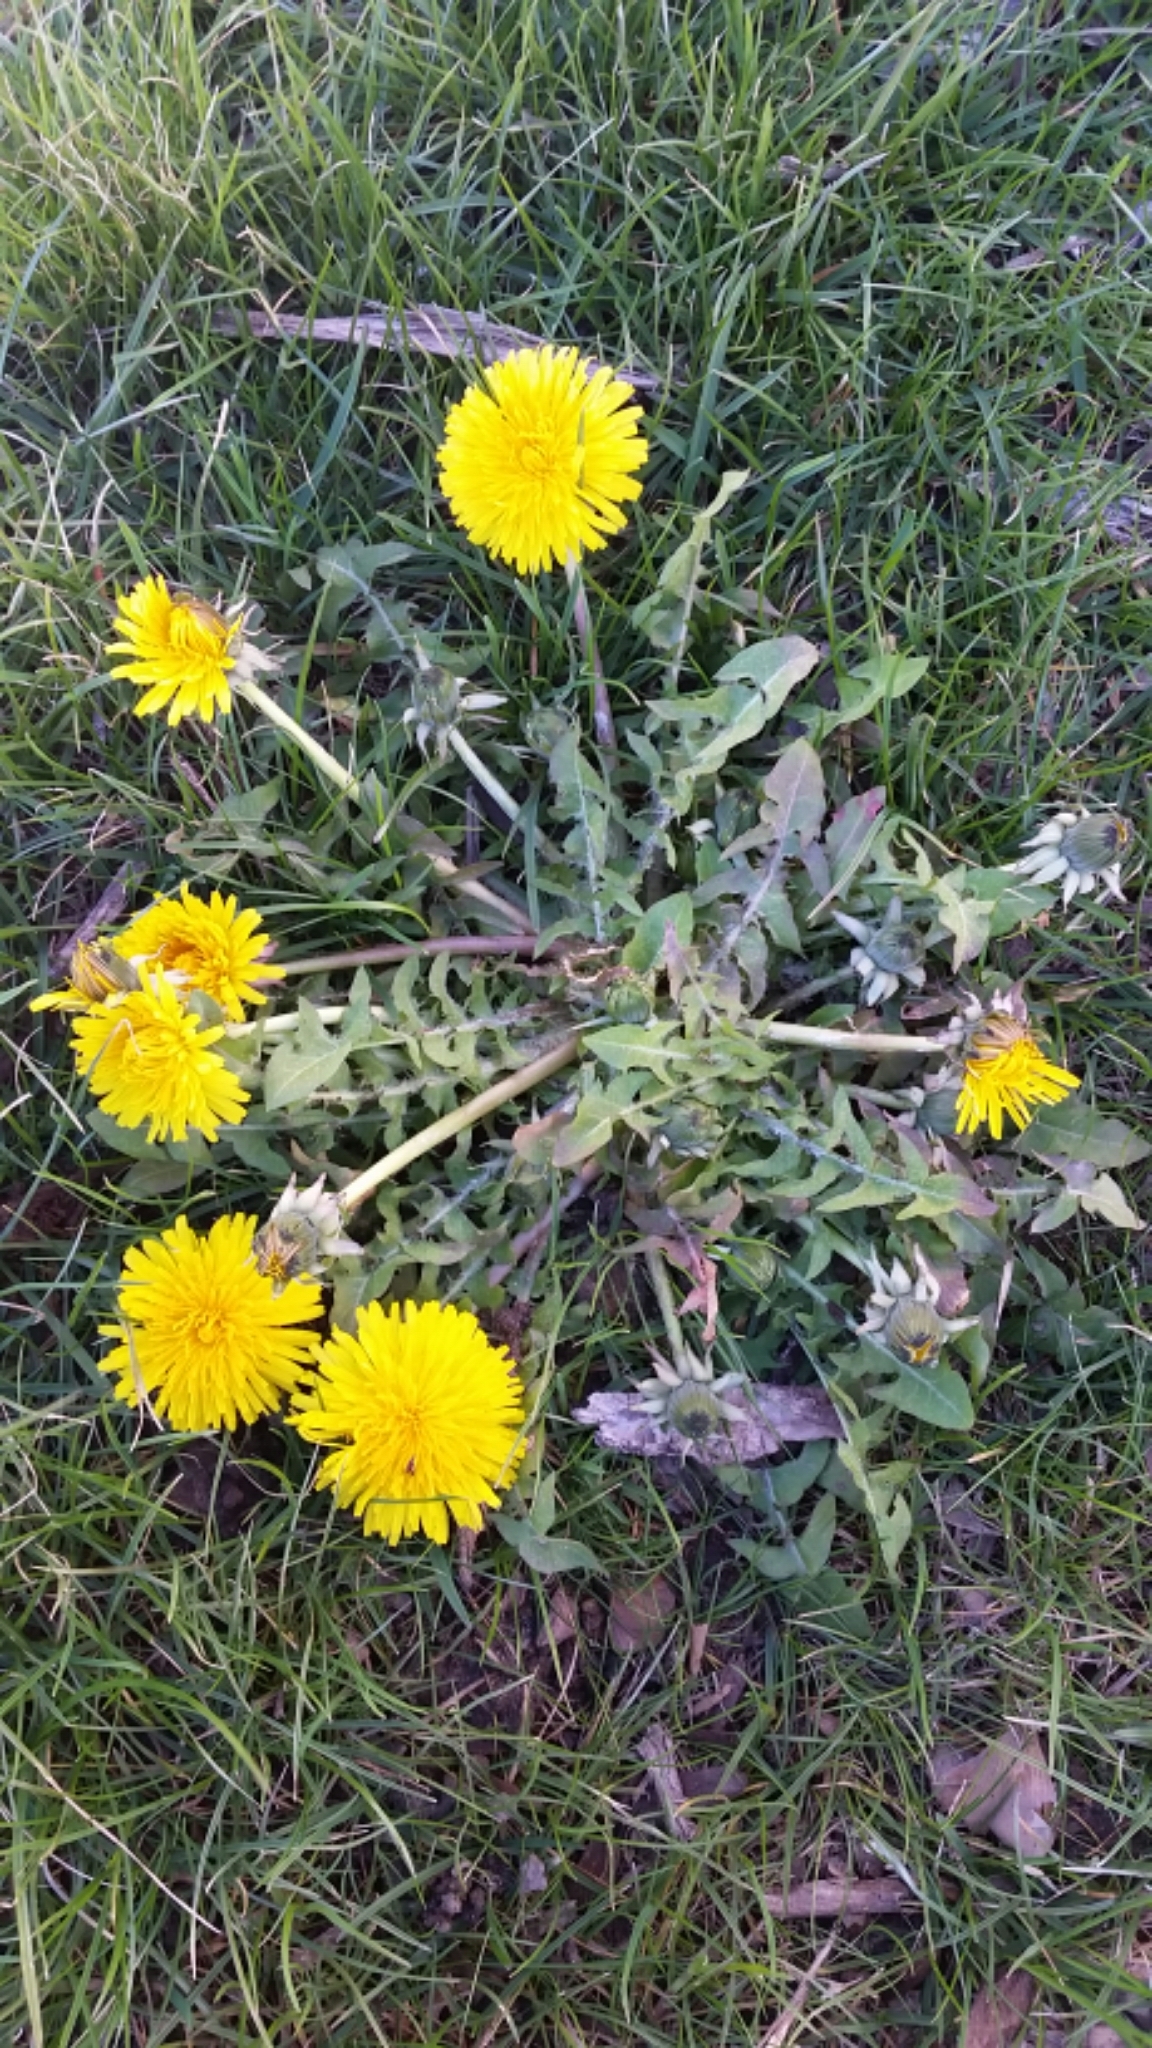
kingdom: Plantae
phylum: Tracheophyta
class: Magnoliopsida
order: Asterales
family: Asteraceae
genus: Taraxacum
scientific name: Taraxacum officinale
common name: Common dandelion
